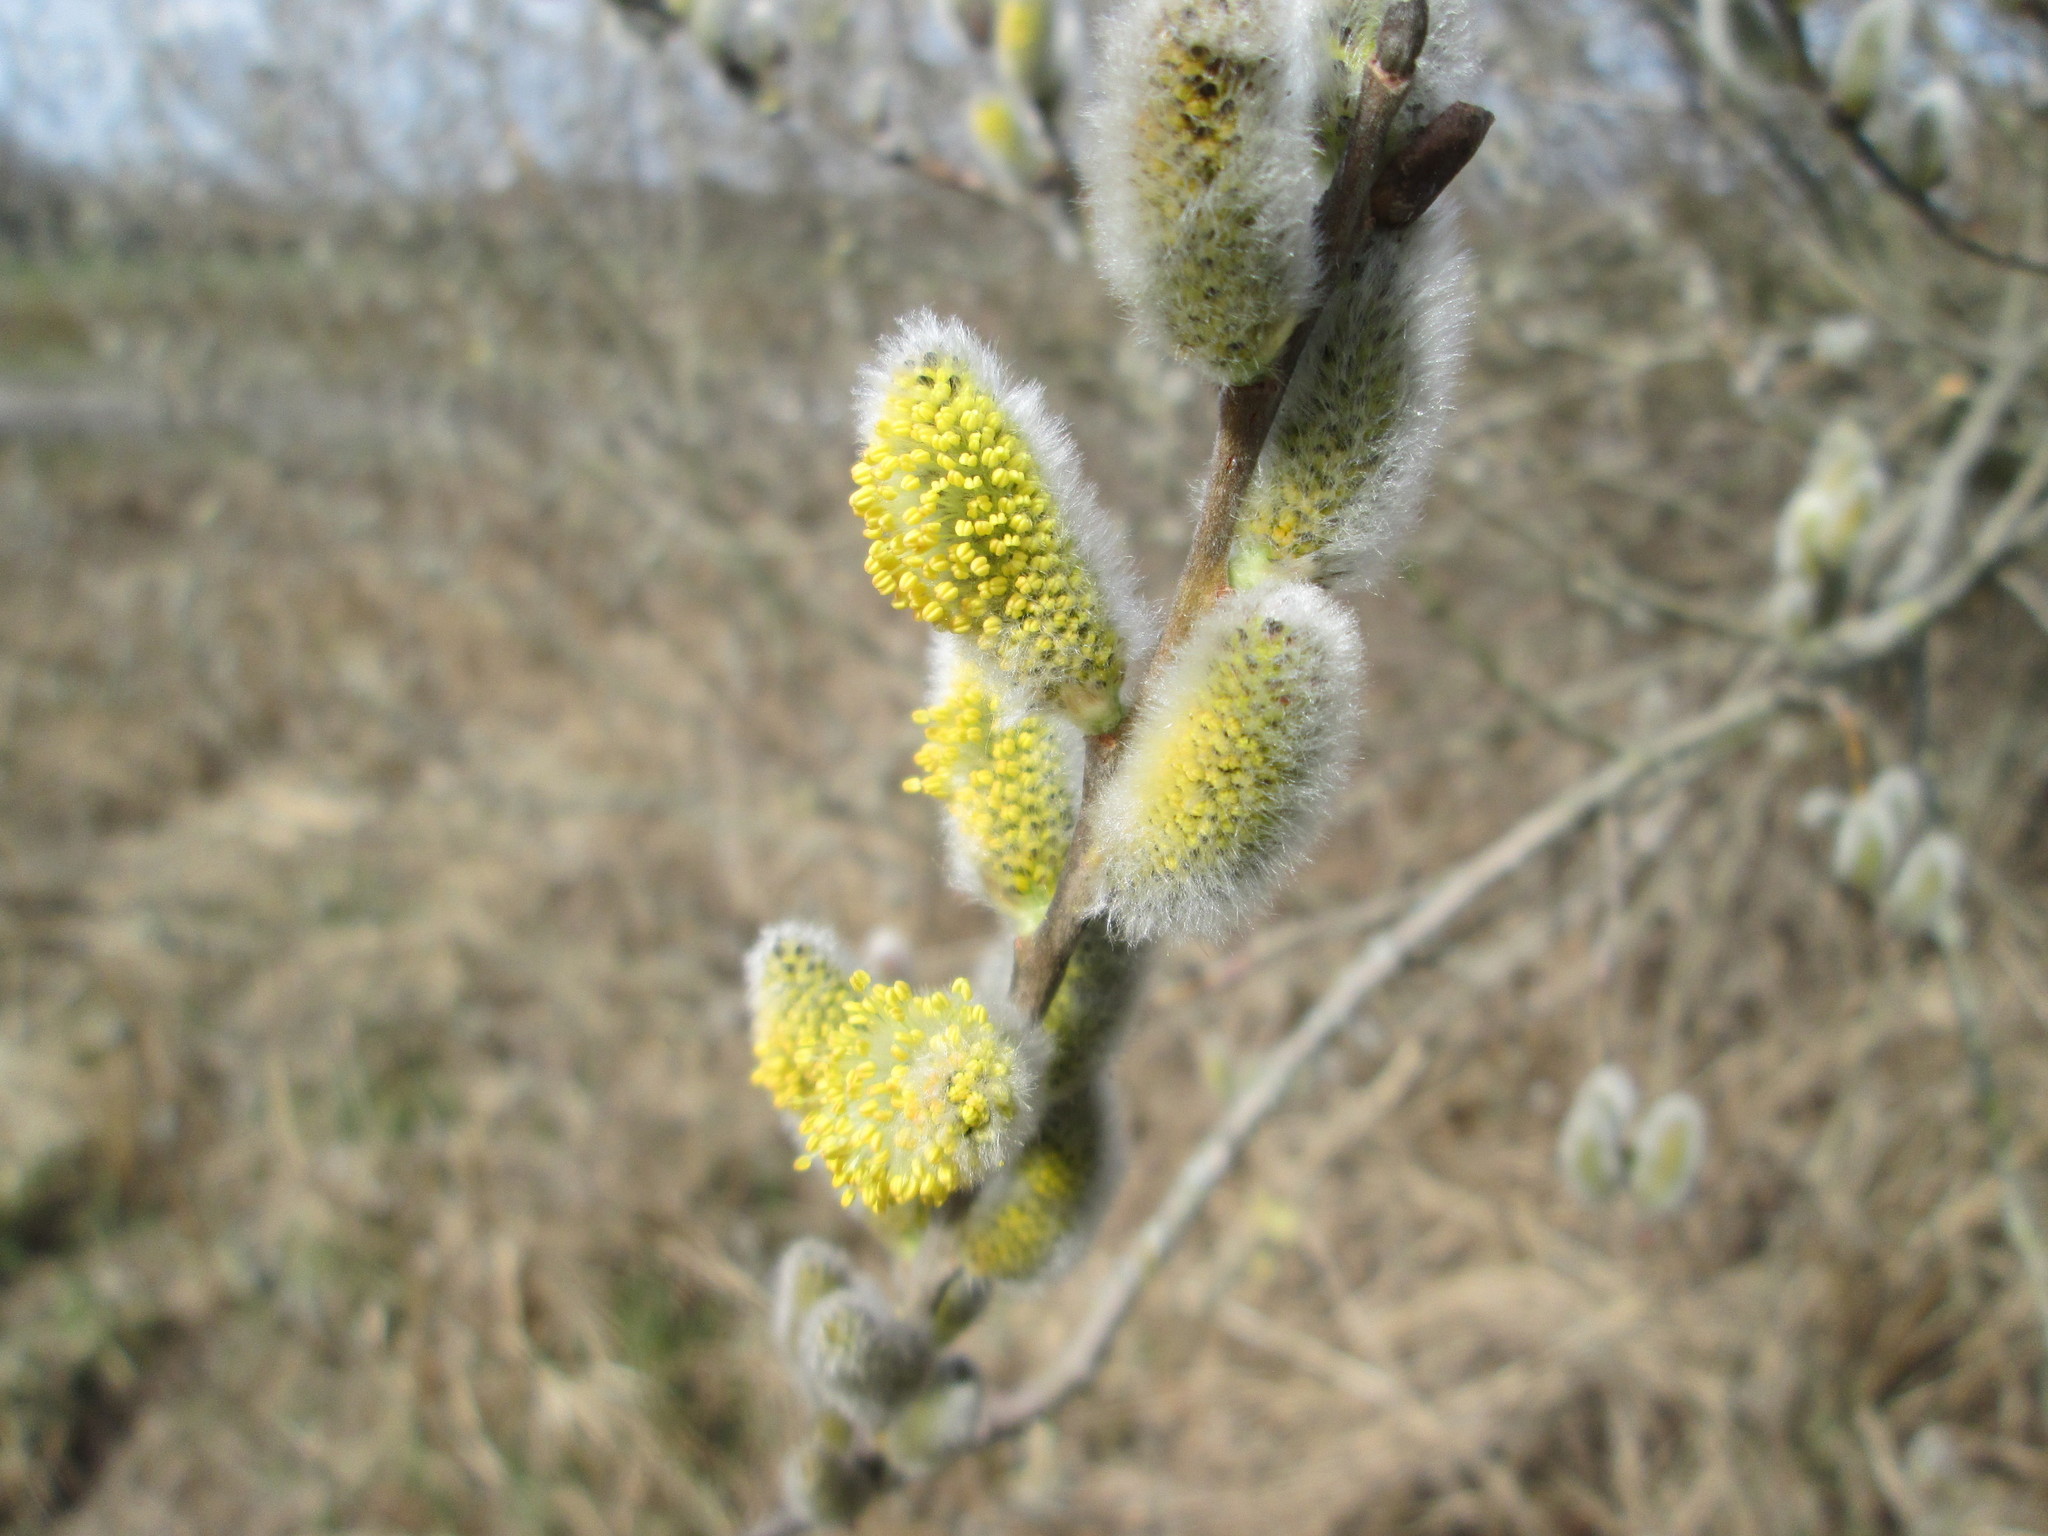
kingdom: Plantae
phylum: Tracheophyta
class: Magnoliopsida
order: Malpighiales
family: Salicaceae
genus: Salix
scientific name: Salix caprea
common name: Goat willow
